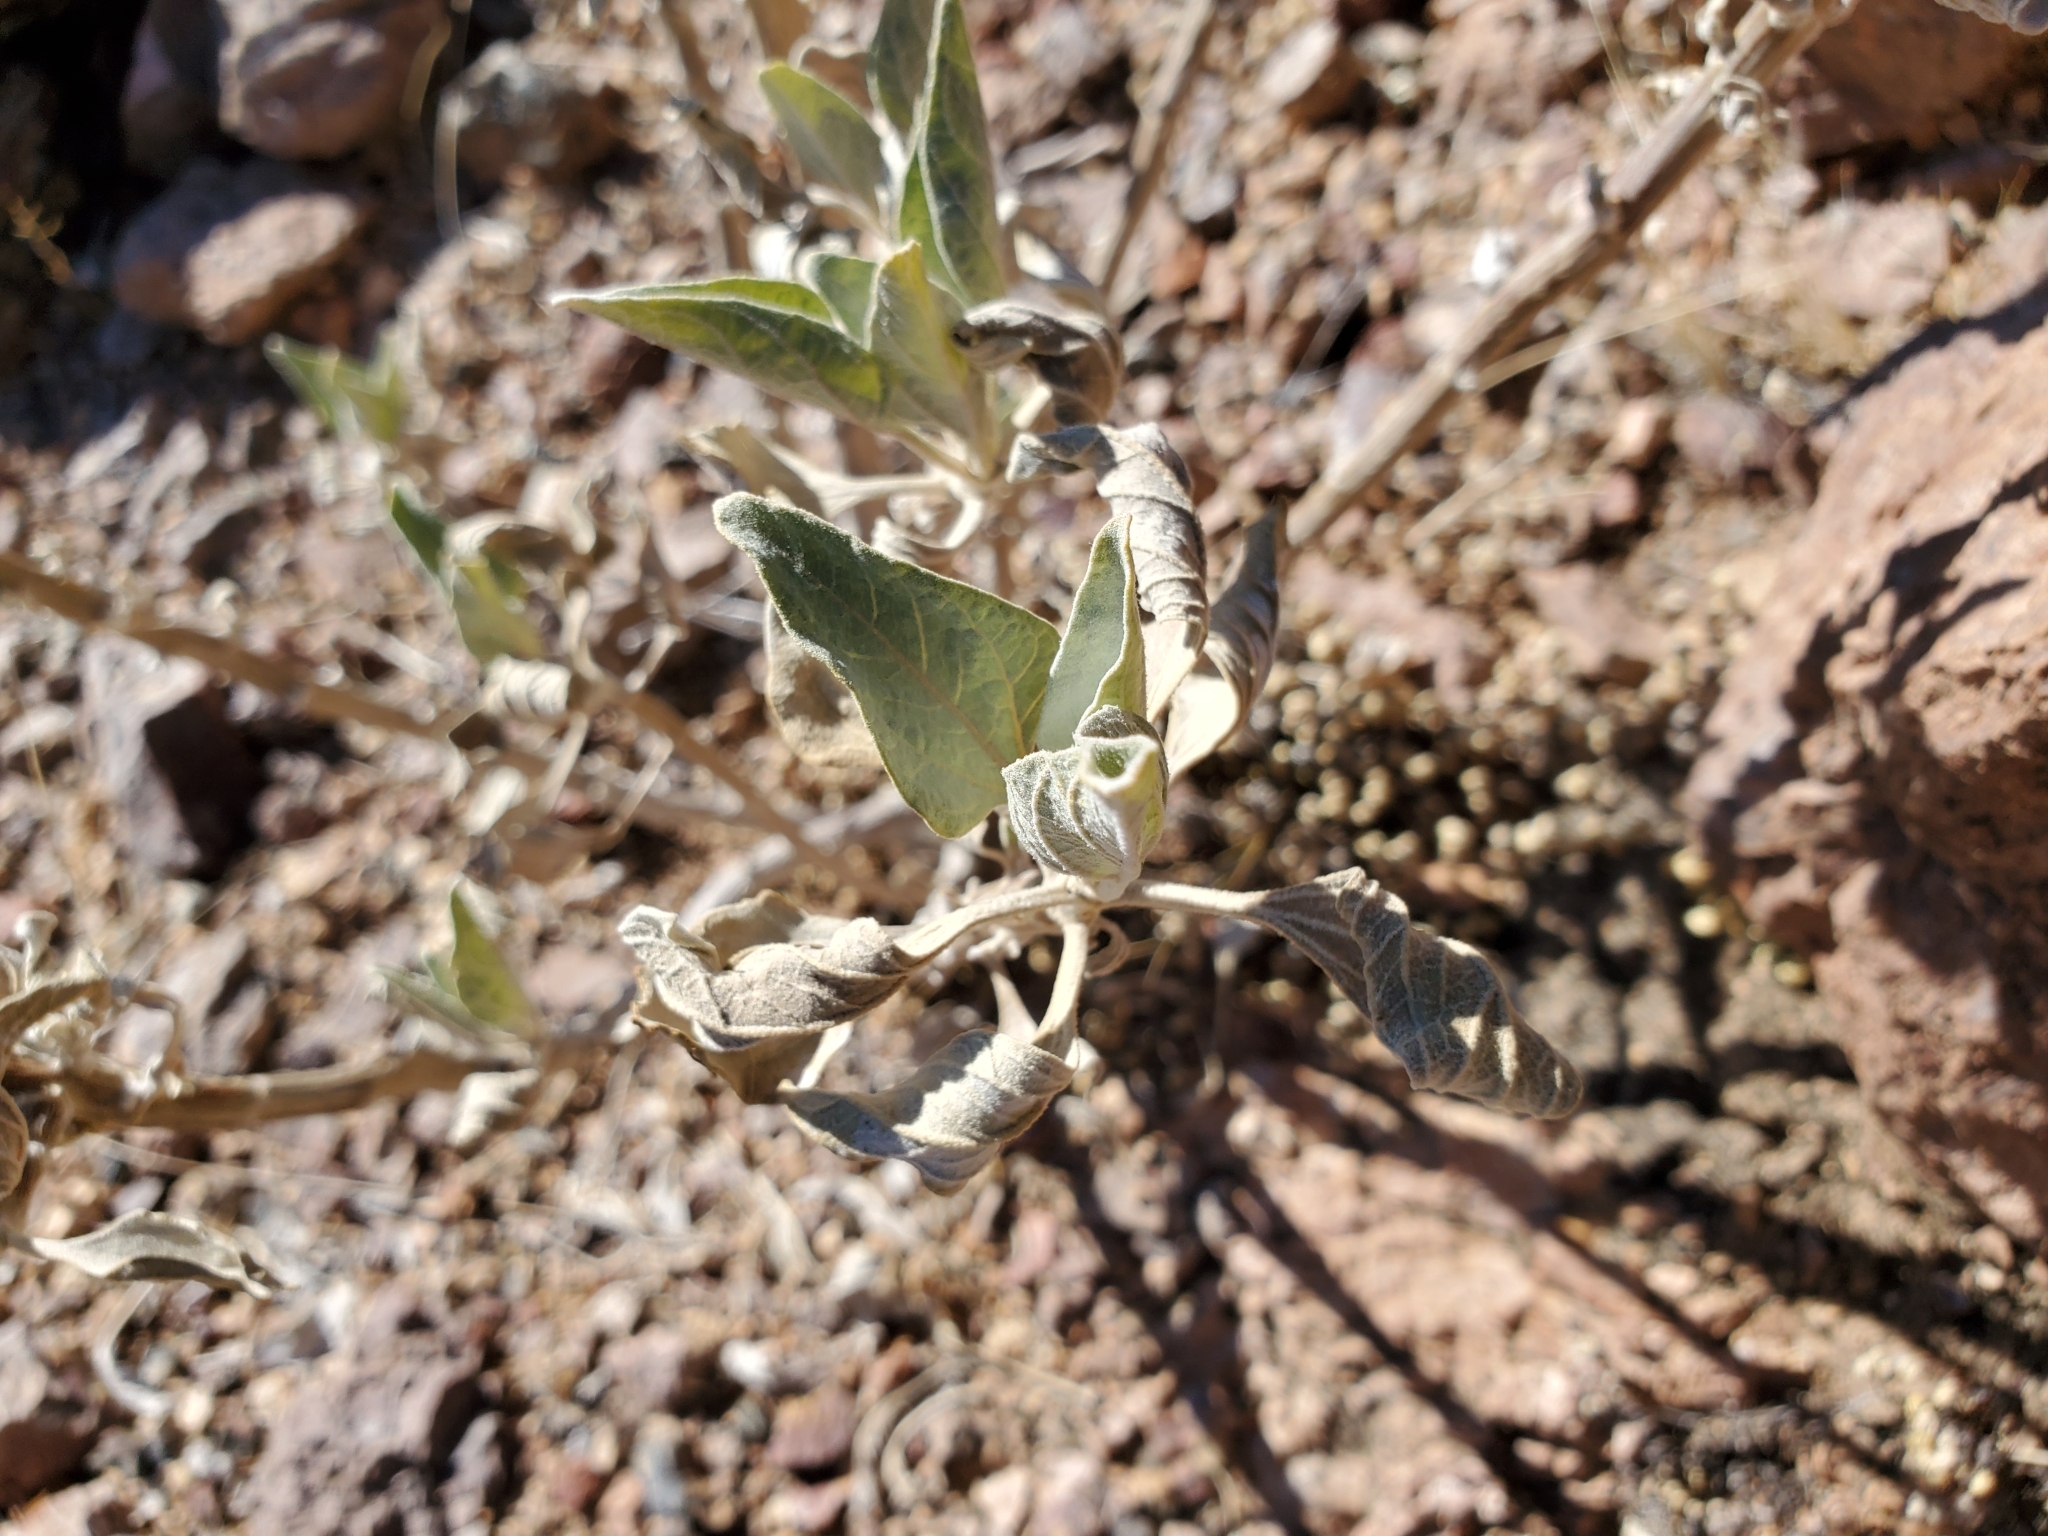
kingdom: Plantae
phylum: Tracheophyta
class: Magnoliopsida
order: Asterales
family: Asteraceae
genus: Encelia
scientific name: Encelia farinosa
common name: Brittlebush
